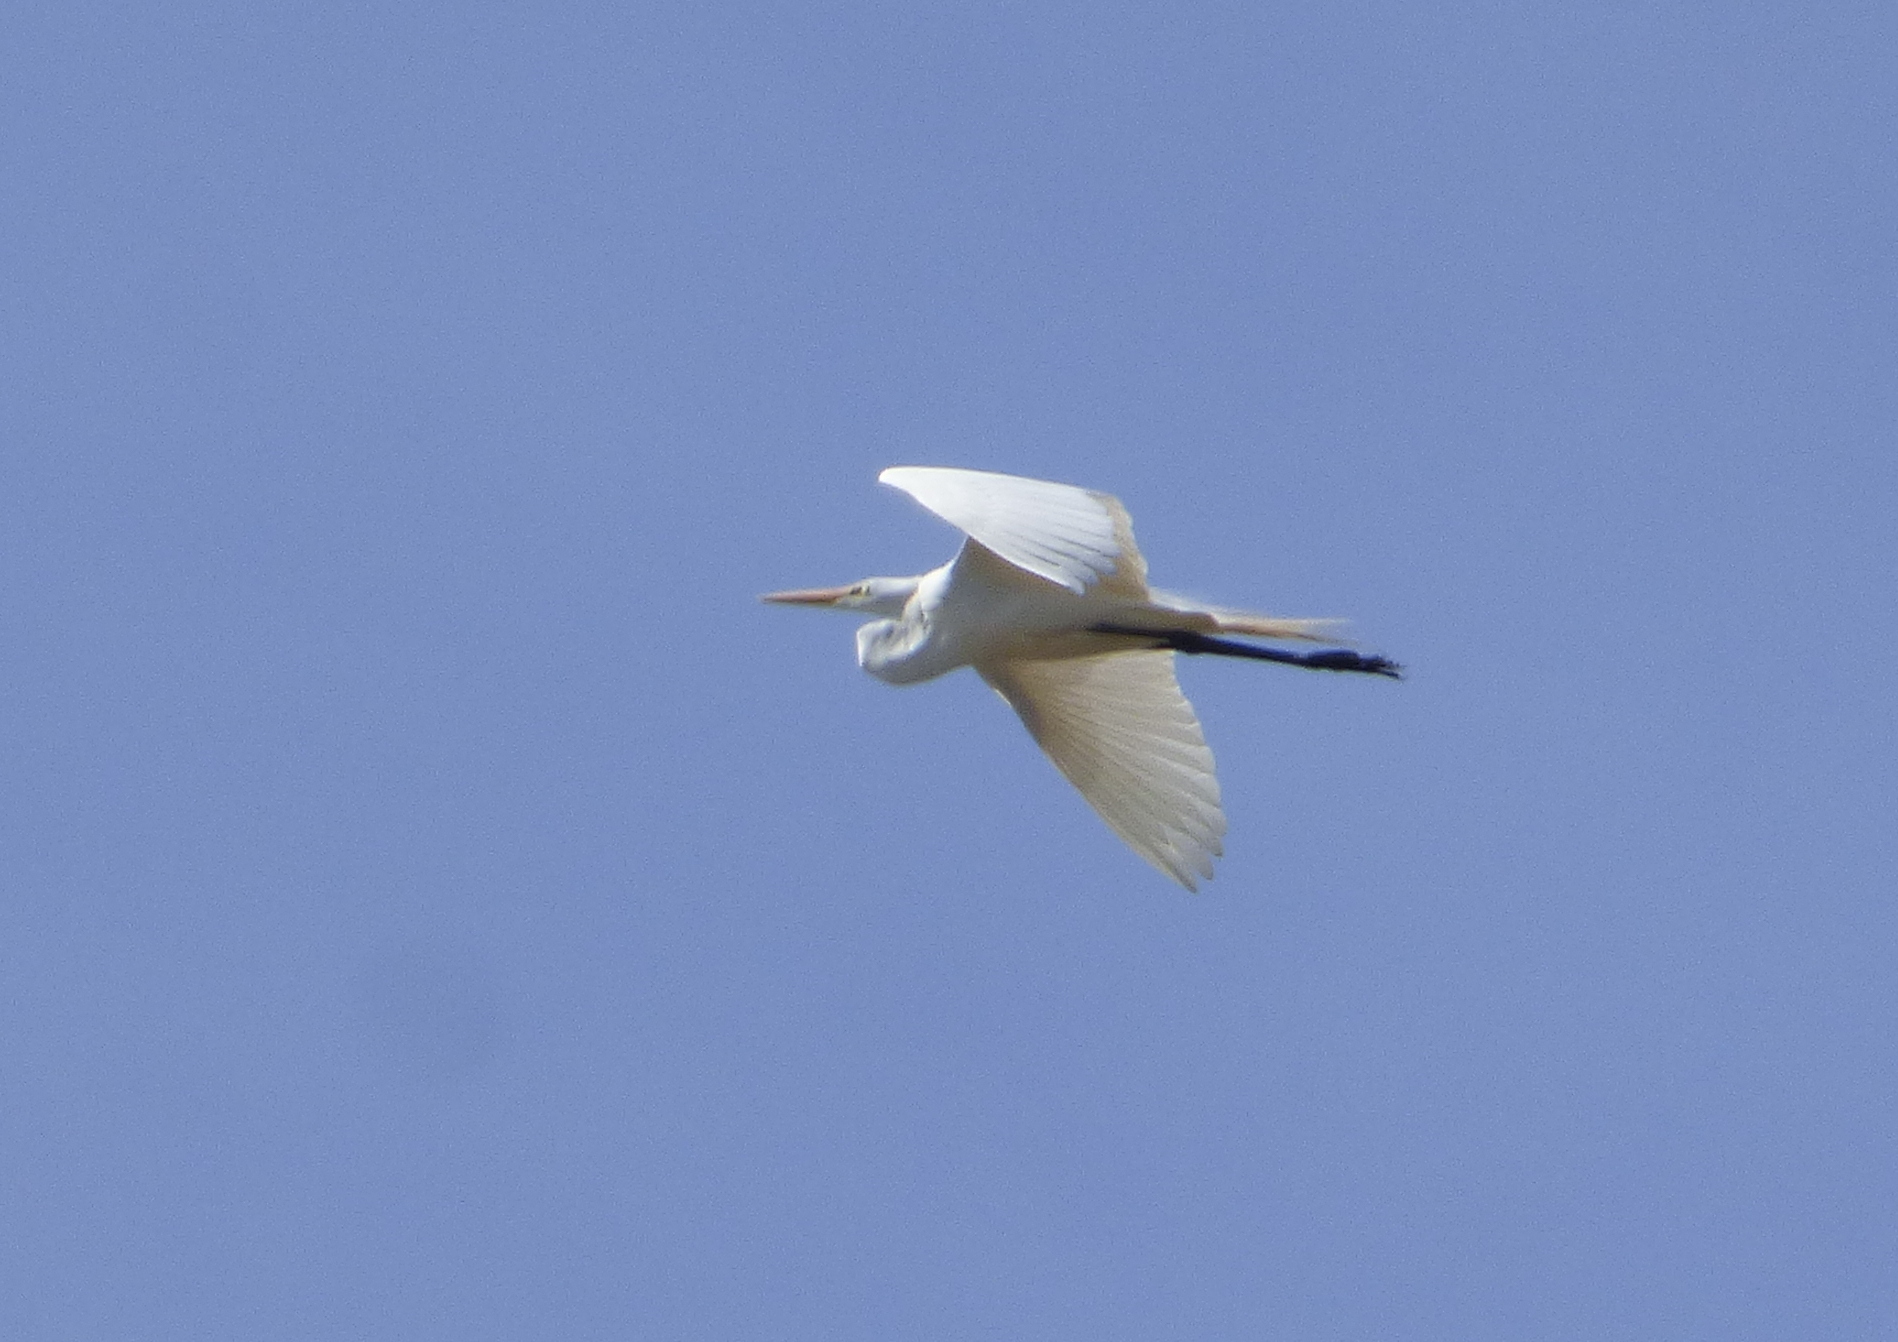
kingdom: Animalia
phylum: Chordata
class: Aves
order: Pelecaniformes
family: Ardeidae
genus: Ardea
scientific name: Ardea alba
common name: Great egret
